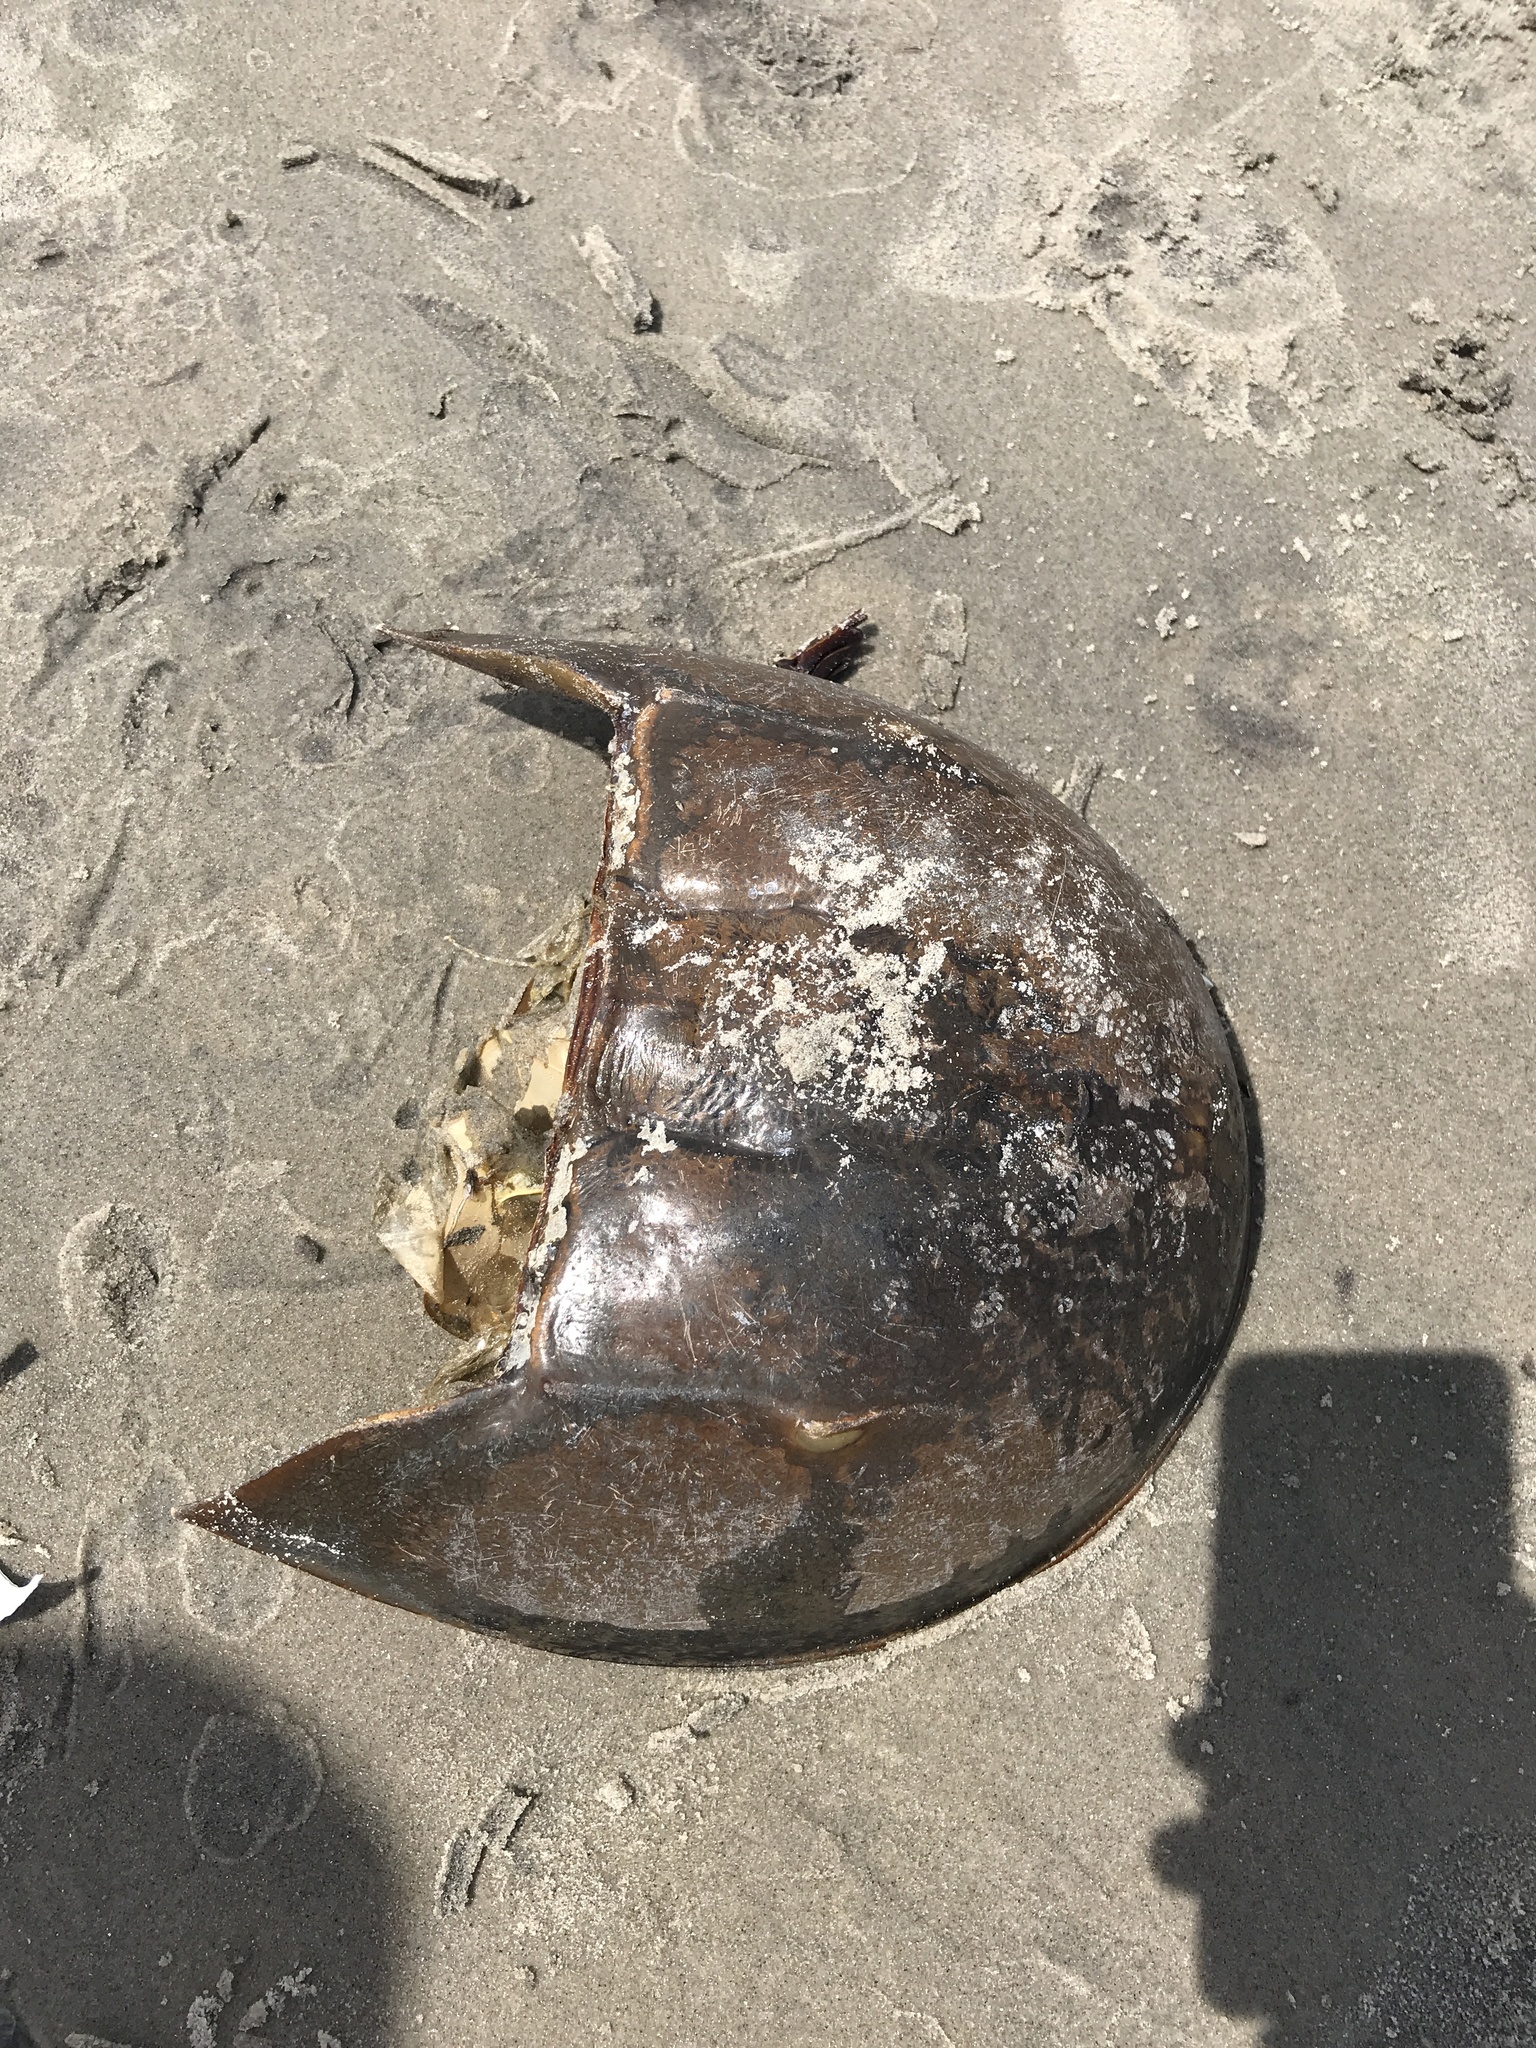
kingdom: Animalia
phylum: Arthropoda
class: Merostomata
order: Xiphosurida
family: Limulidae
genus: Limulus
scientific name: Limulus polyphemus
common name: Horseshoe crab
